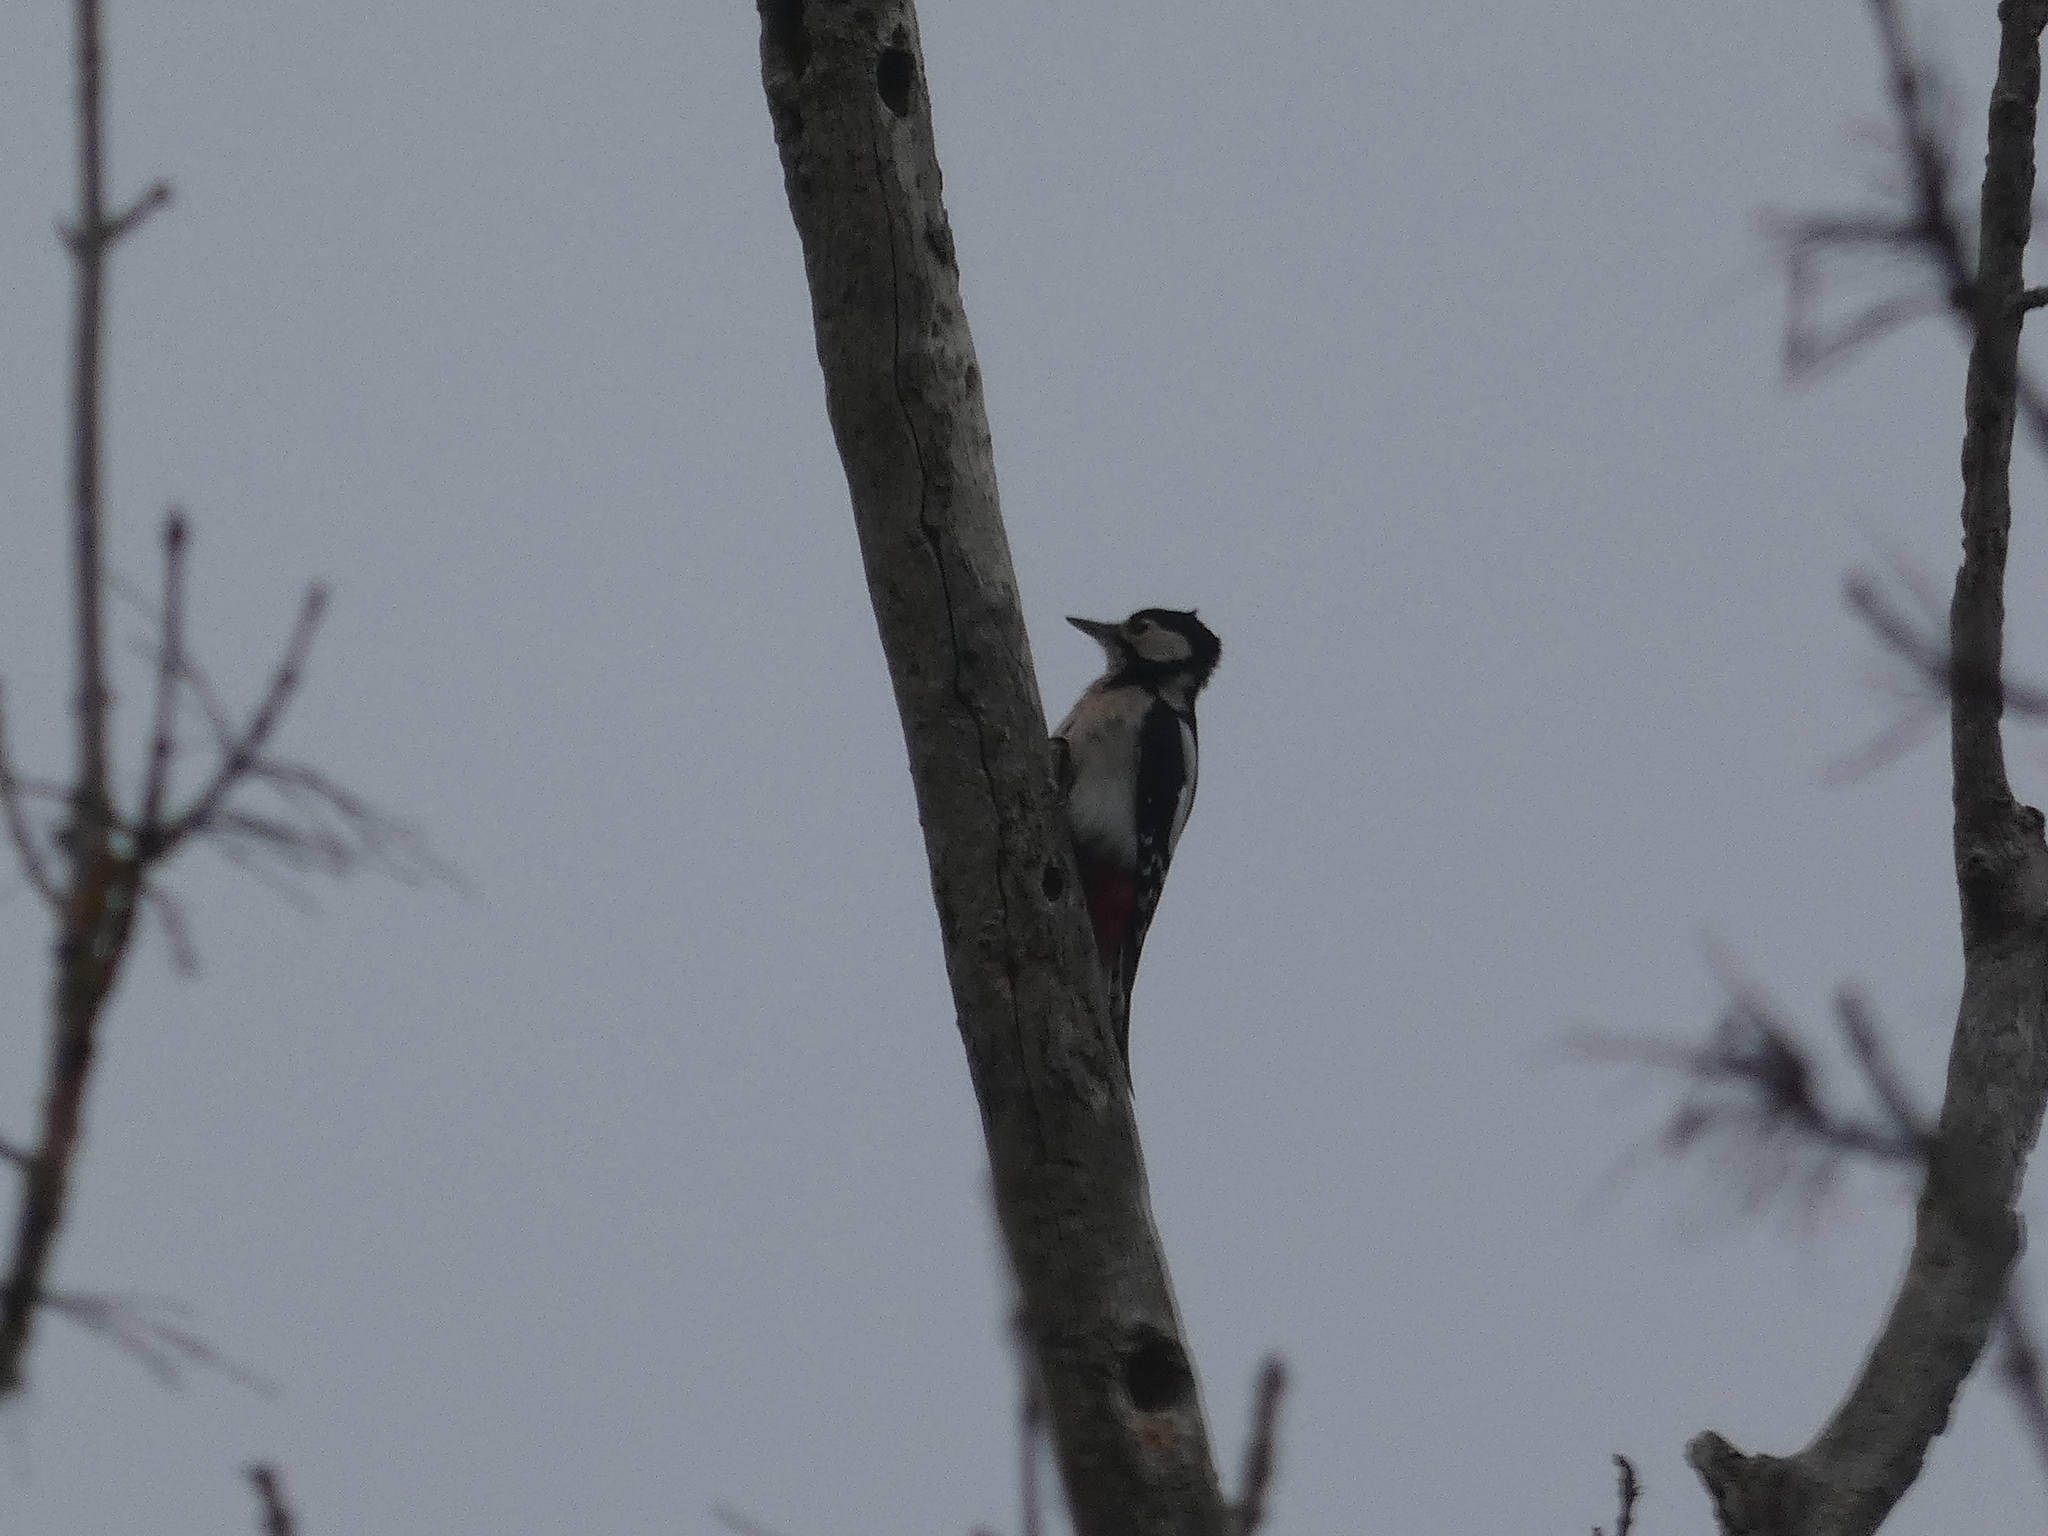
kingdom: Animalia
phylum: Chordata
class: Aves
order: Piciformes
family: Picidae
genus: Dendrocopos
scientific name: Dendrocopos major
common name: Great spotted woodpecker
